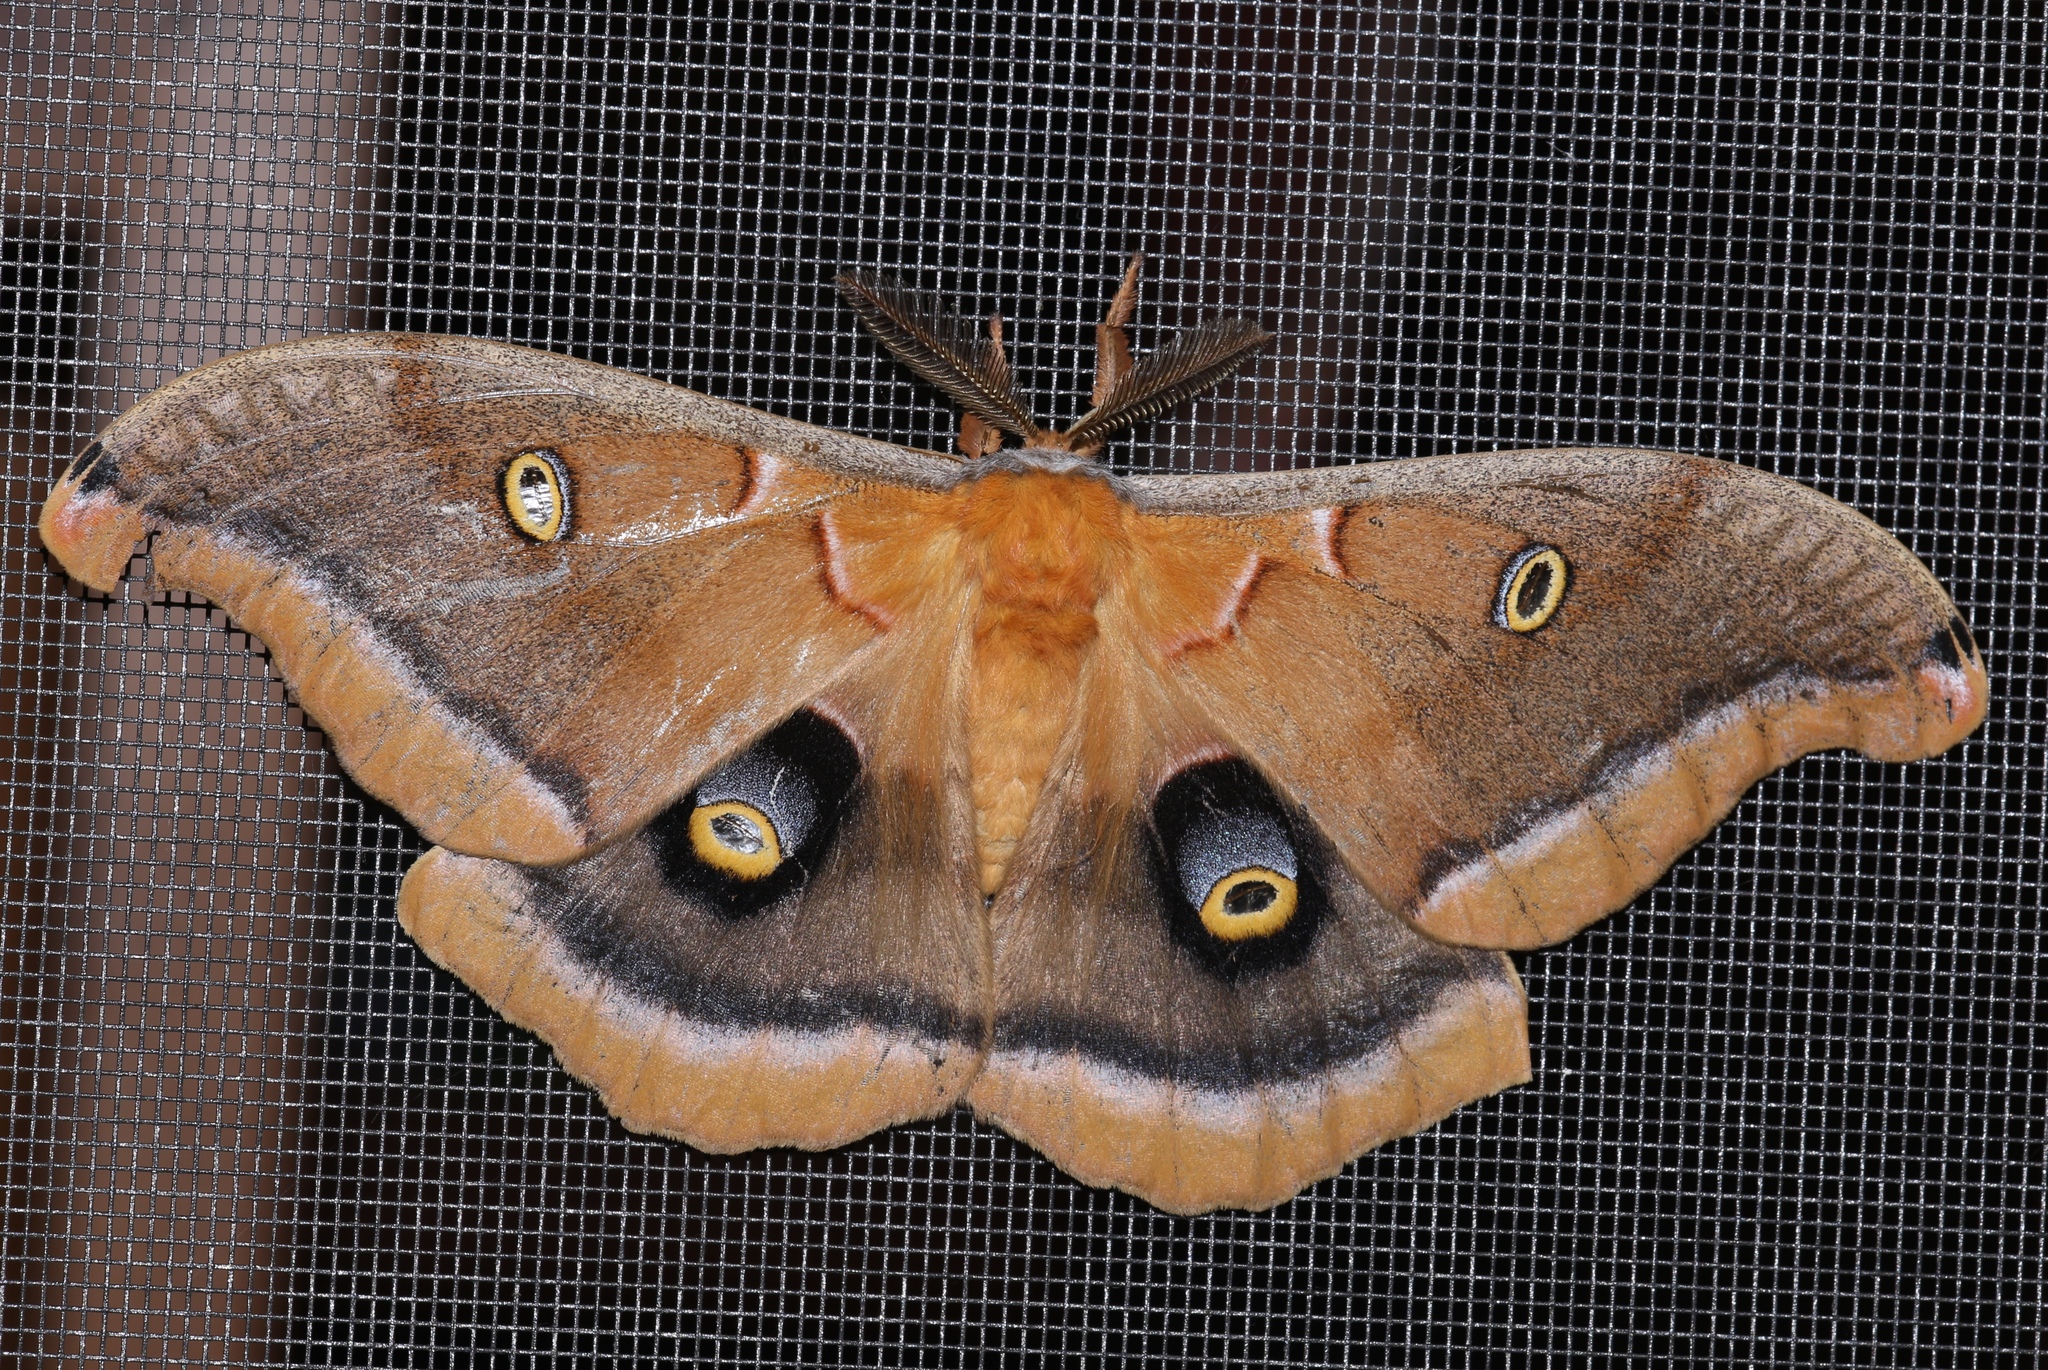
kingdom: Animalia
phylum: Arthropoda
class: Insecta
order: Lepidoptera
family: Saturniidae
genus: Antheraea
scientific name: Antheraea polyphemus
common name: Polyphemus moth
